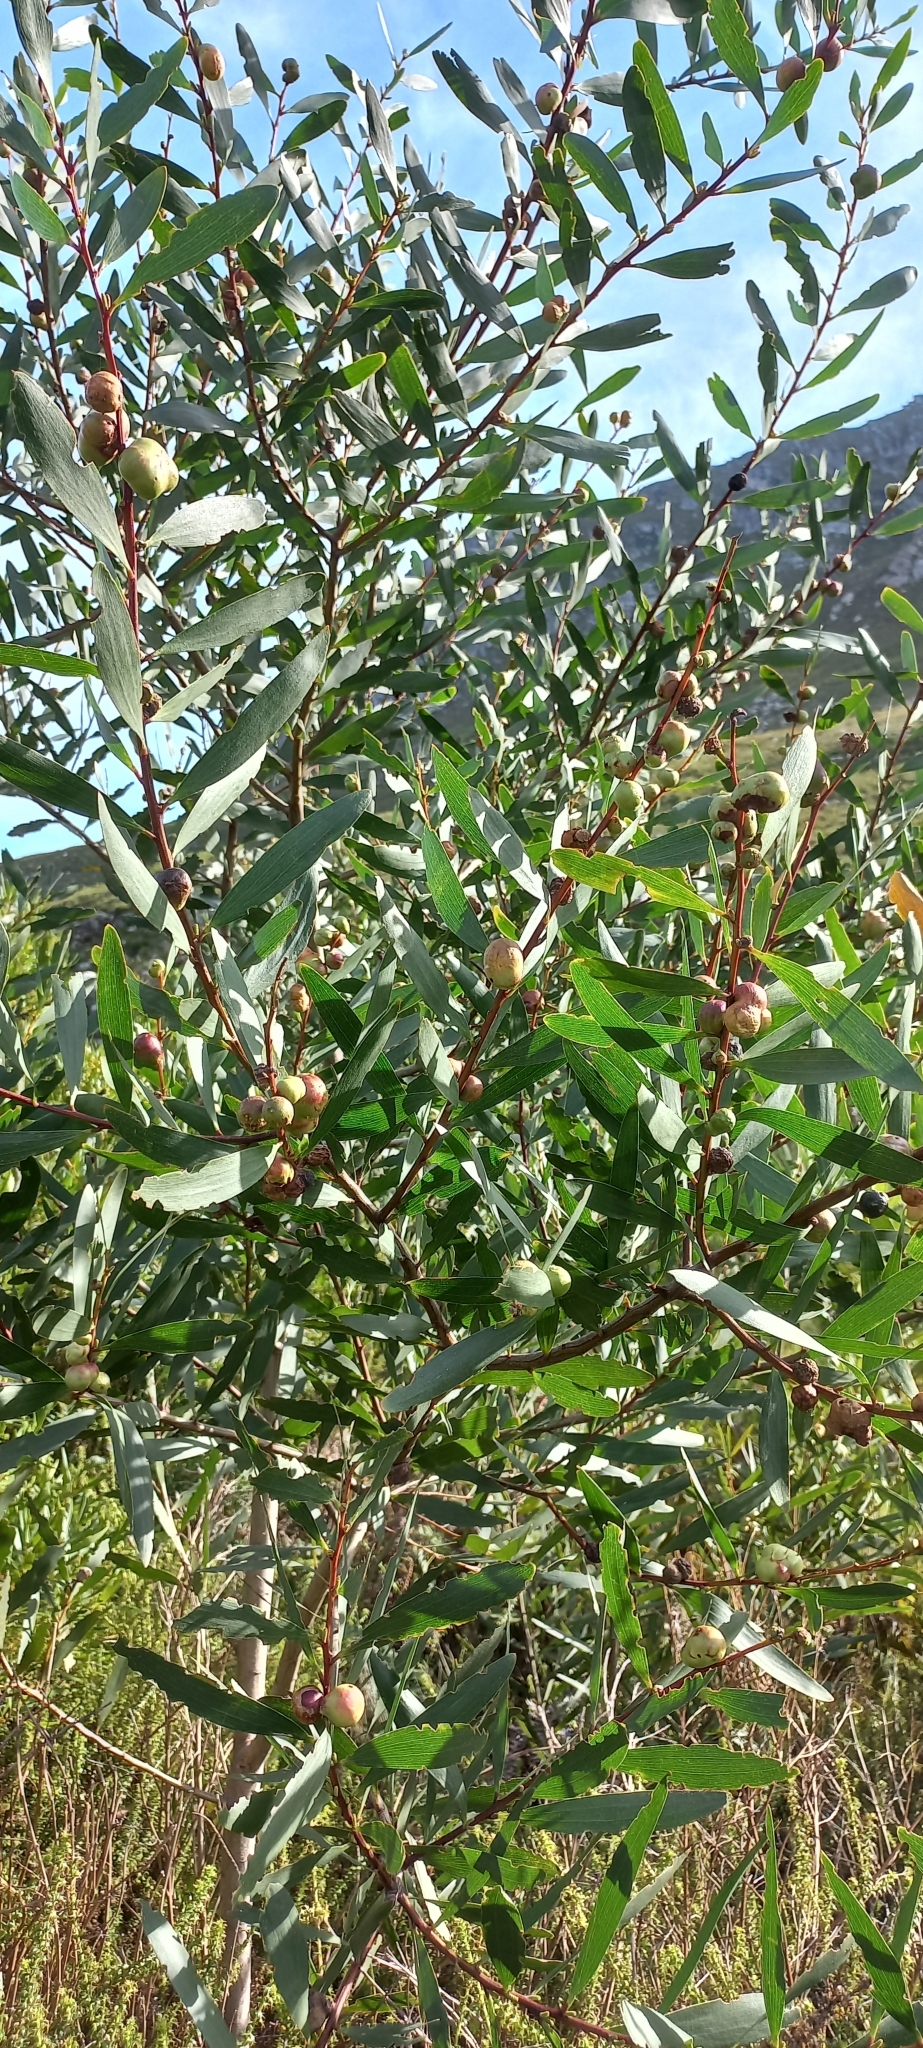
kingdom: Plantae
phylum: Tracheophyta
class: Magnoliopsida
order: Fabales
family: Fabaceae
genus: Acacia
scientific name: Acacia longifolia
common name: Sydney golden wattle
